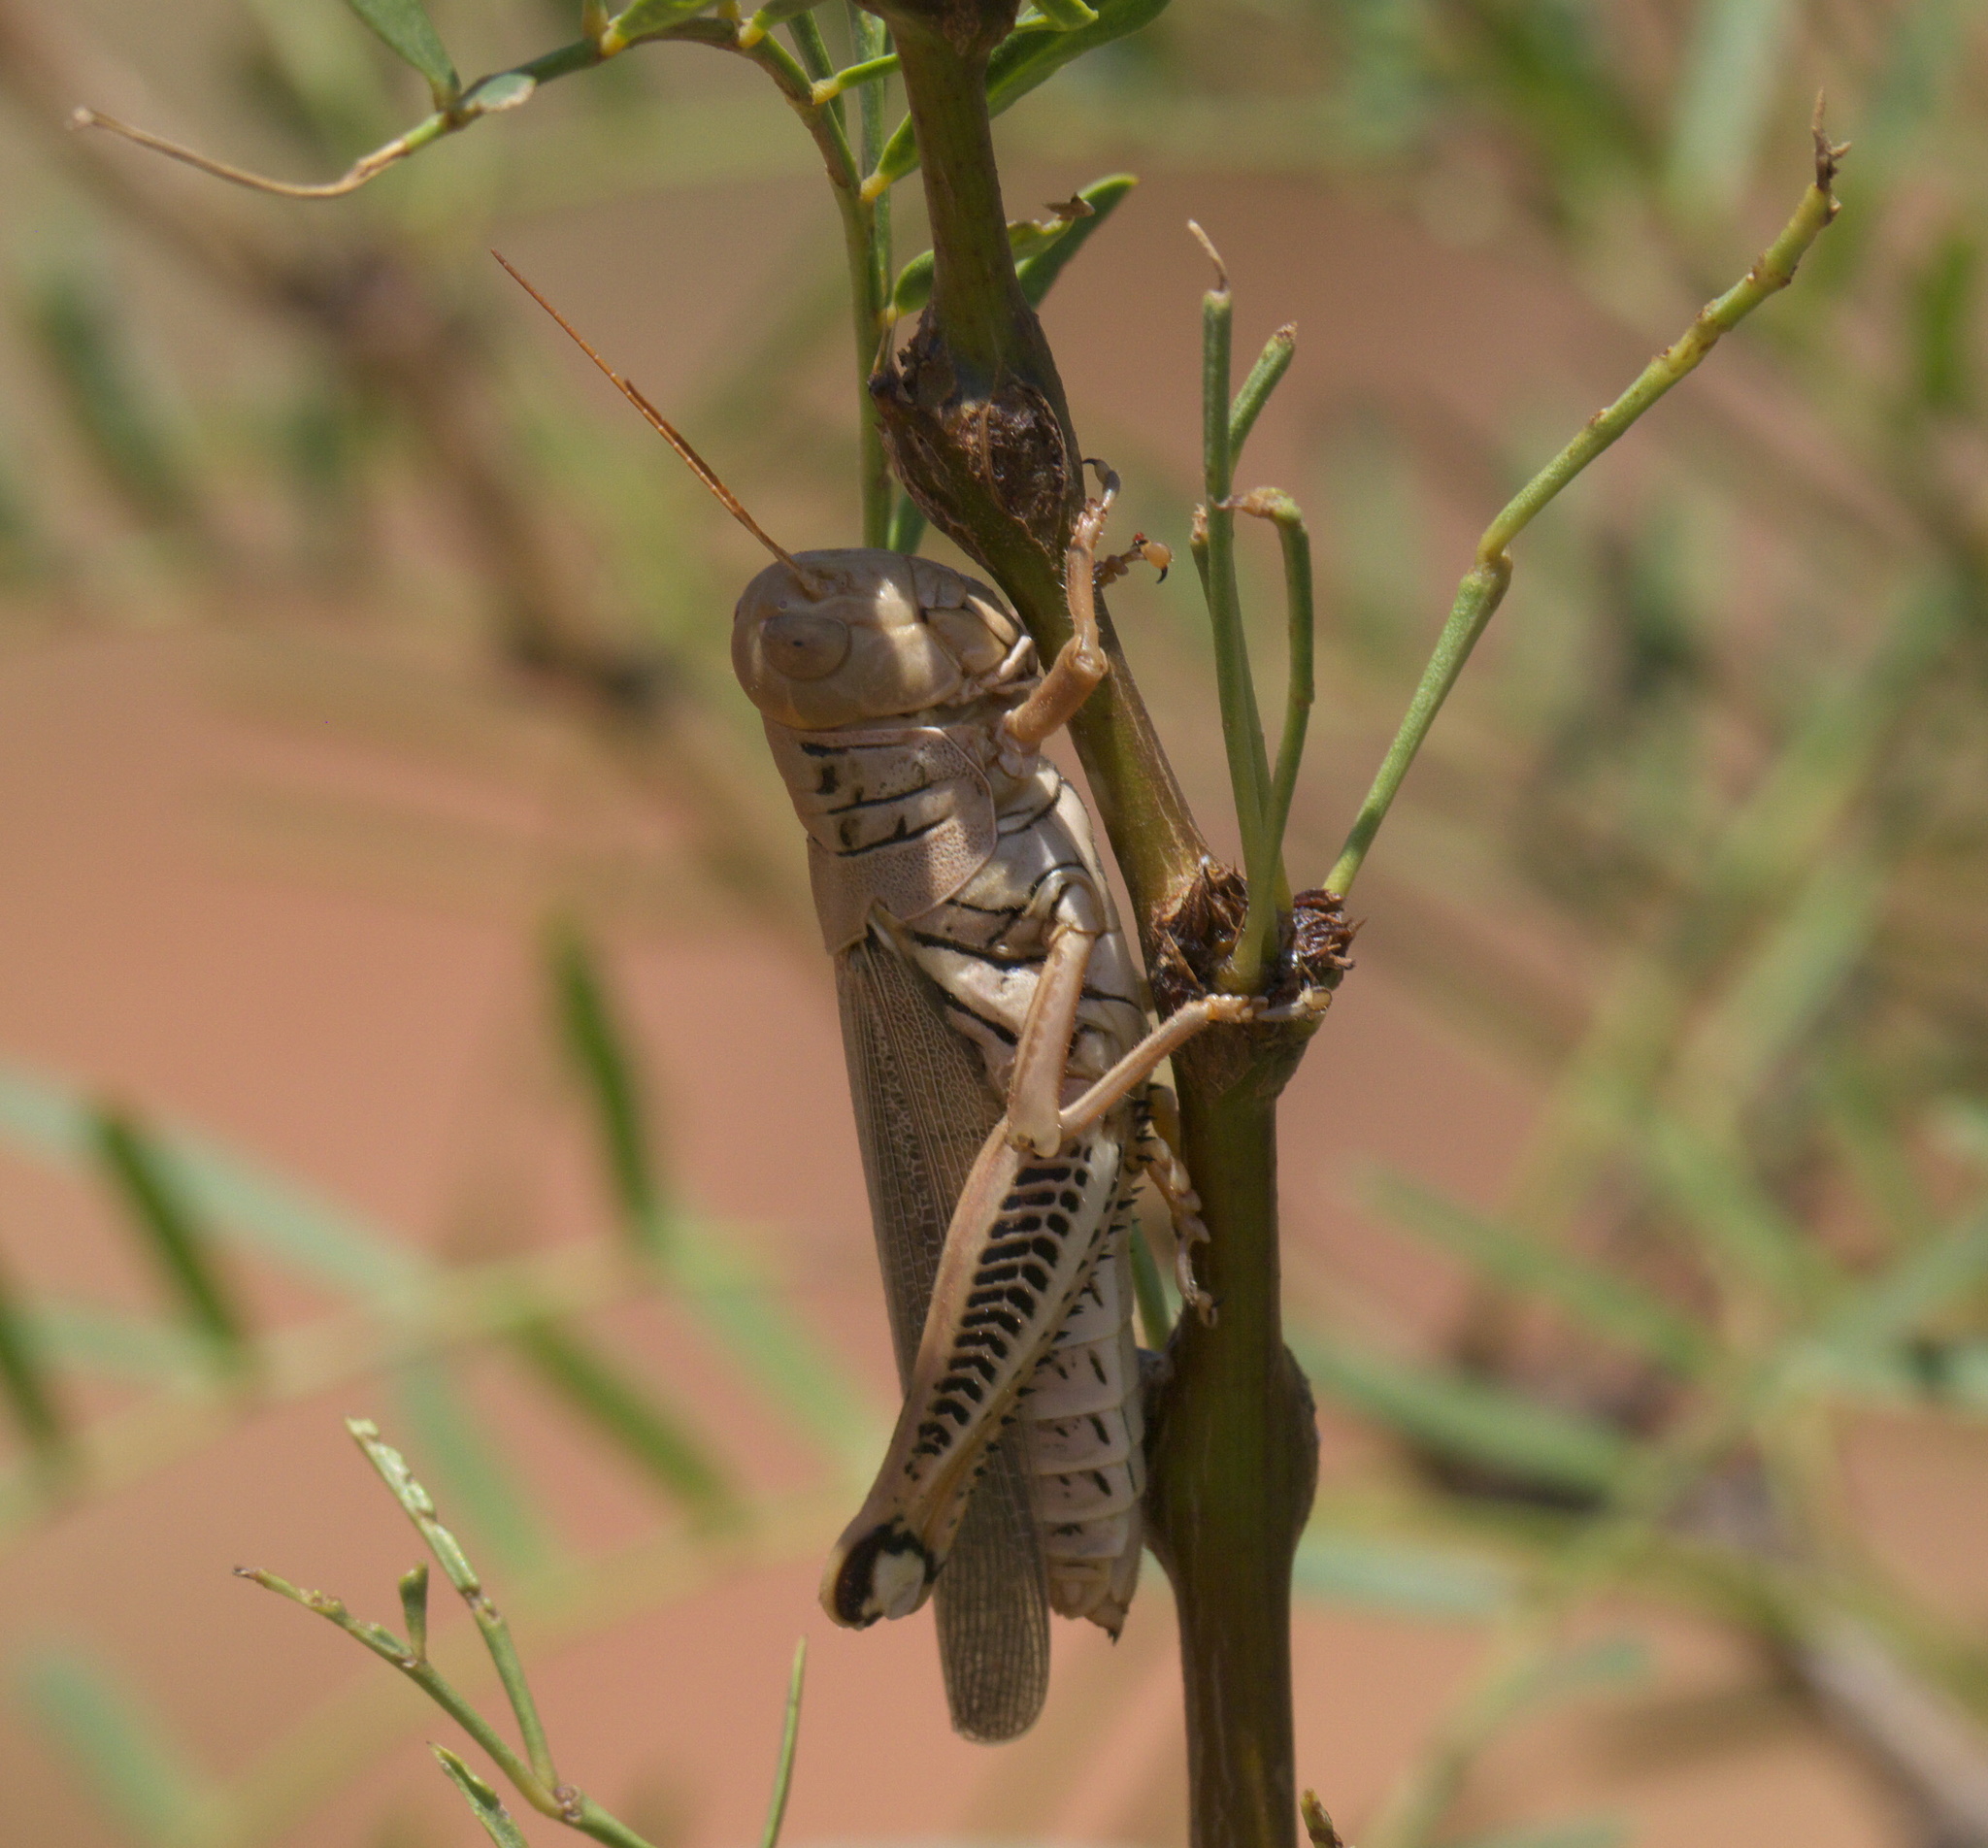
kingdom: Animalia
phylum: Arthropoda
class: Insecta
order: Orthoptera
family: Acrididae
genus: Melanoplus
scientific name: Melanoplus differentialis
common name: Differential grasshopper
